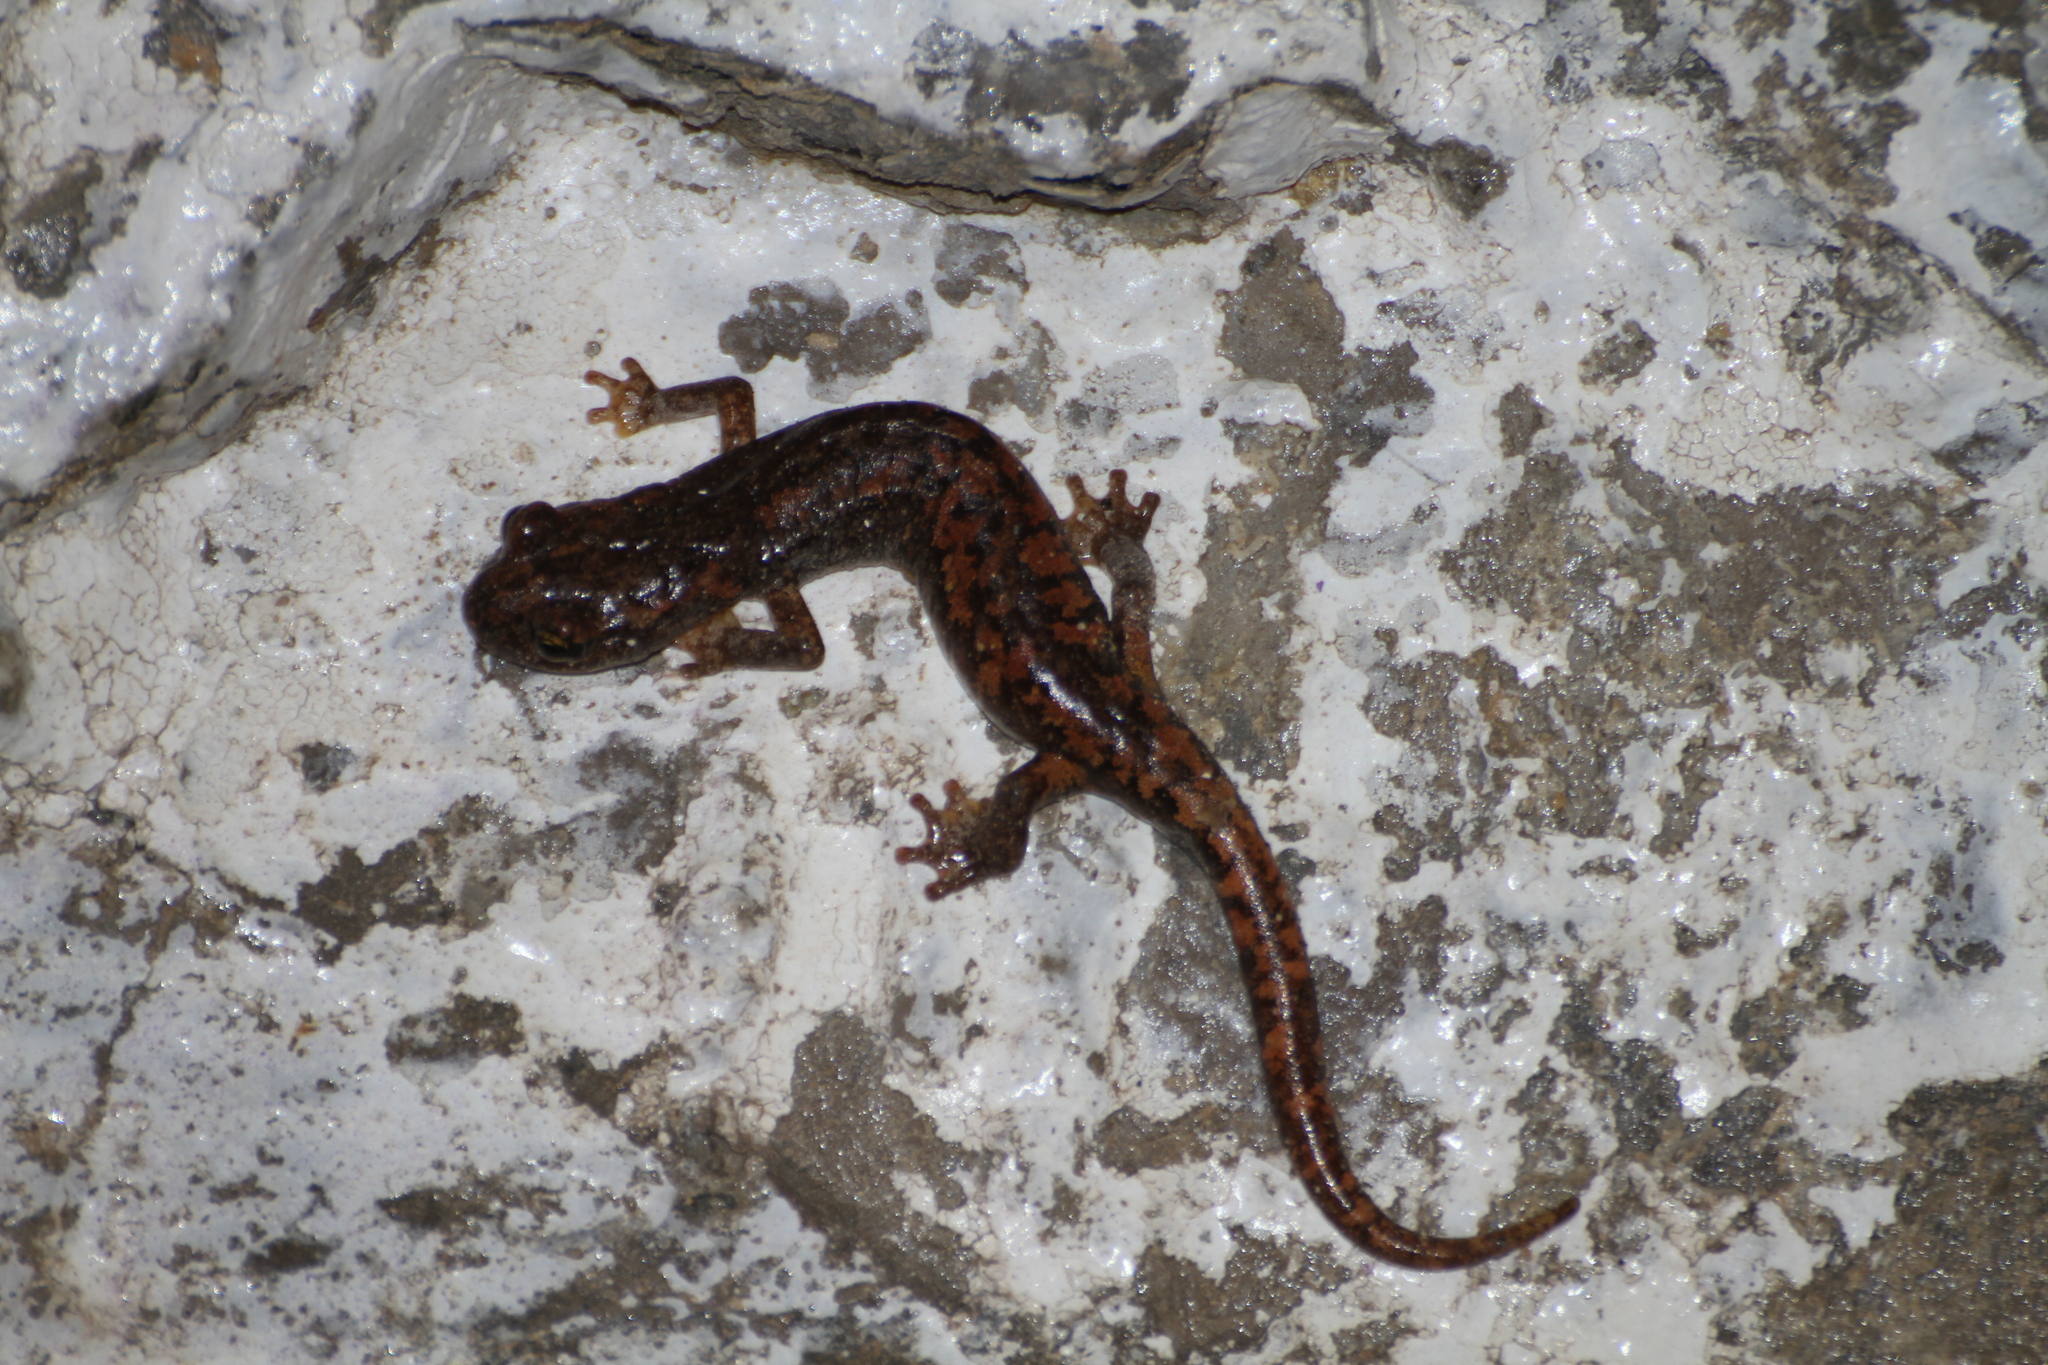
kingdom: Animalia
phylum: Chordata
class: Amphibia
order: Caudata
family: Plethodontidae
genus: Speleomantes
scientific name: Speleomantes strinatii
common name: French cave salamander
